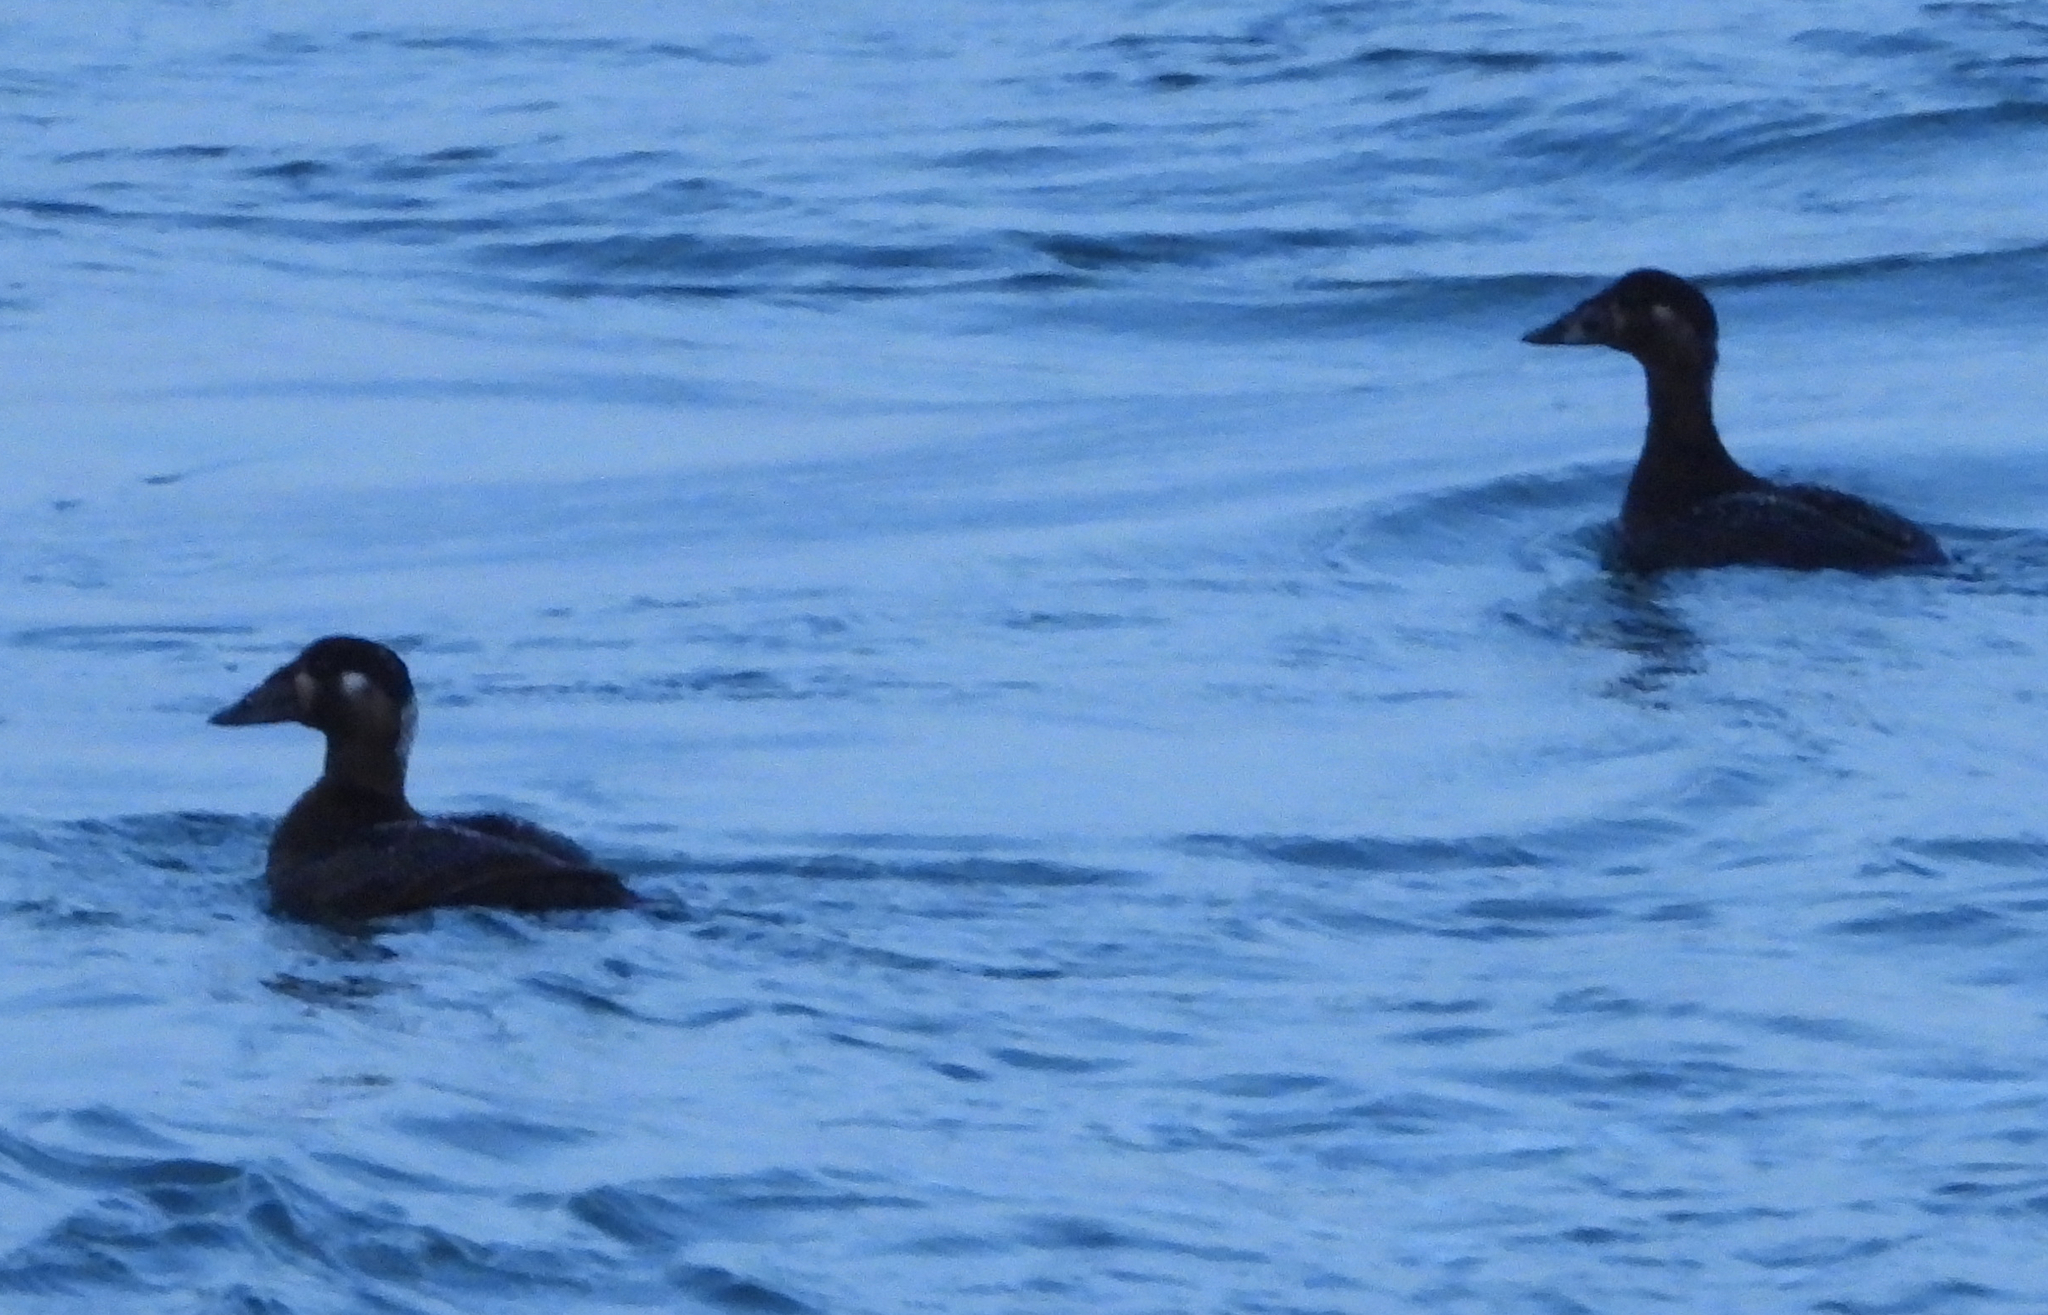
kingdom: Animalia
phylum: Chordata
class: Aves
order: Anseriformes
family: Anatidae
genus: Melanitta
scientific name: Melanitta perspicillata
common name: Surf scoter
